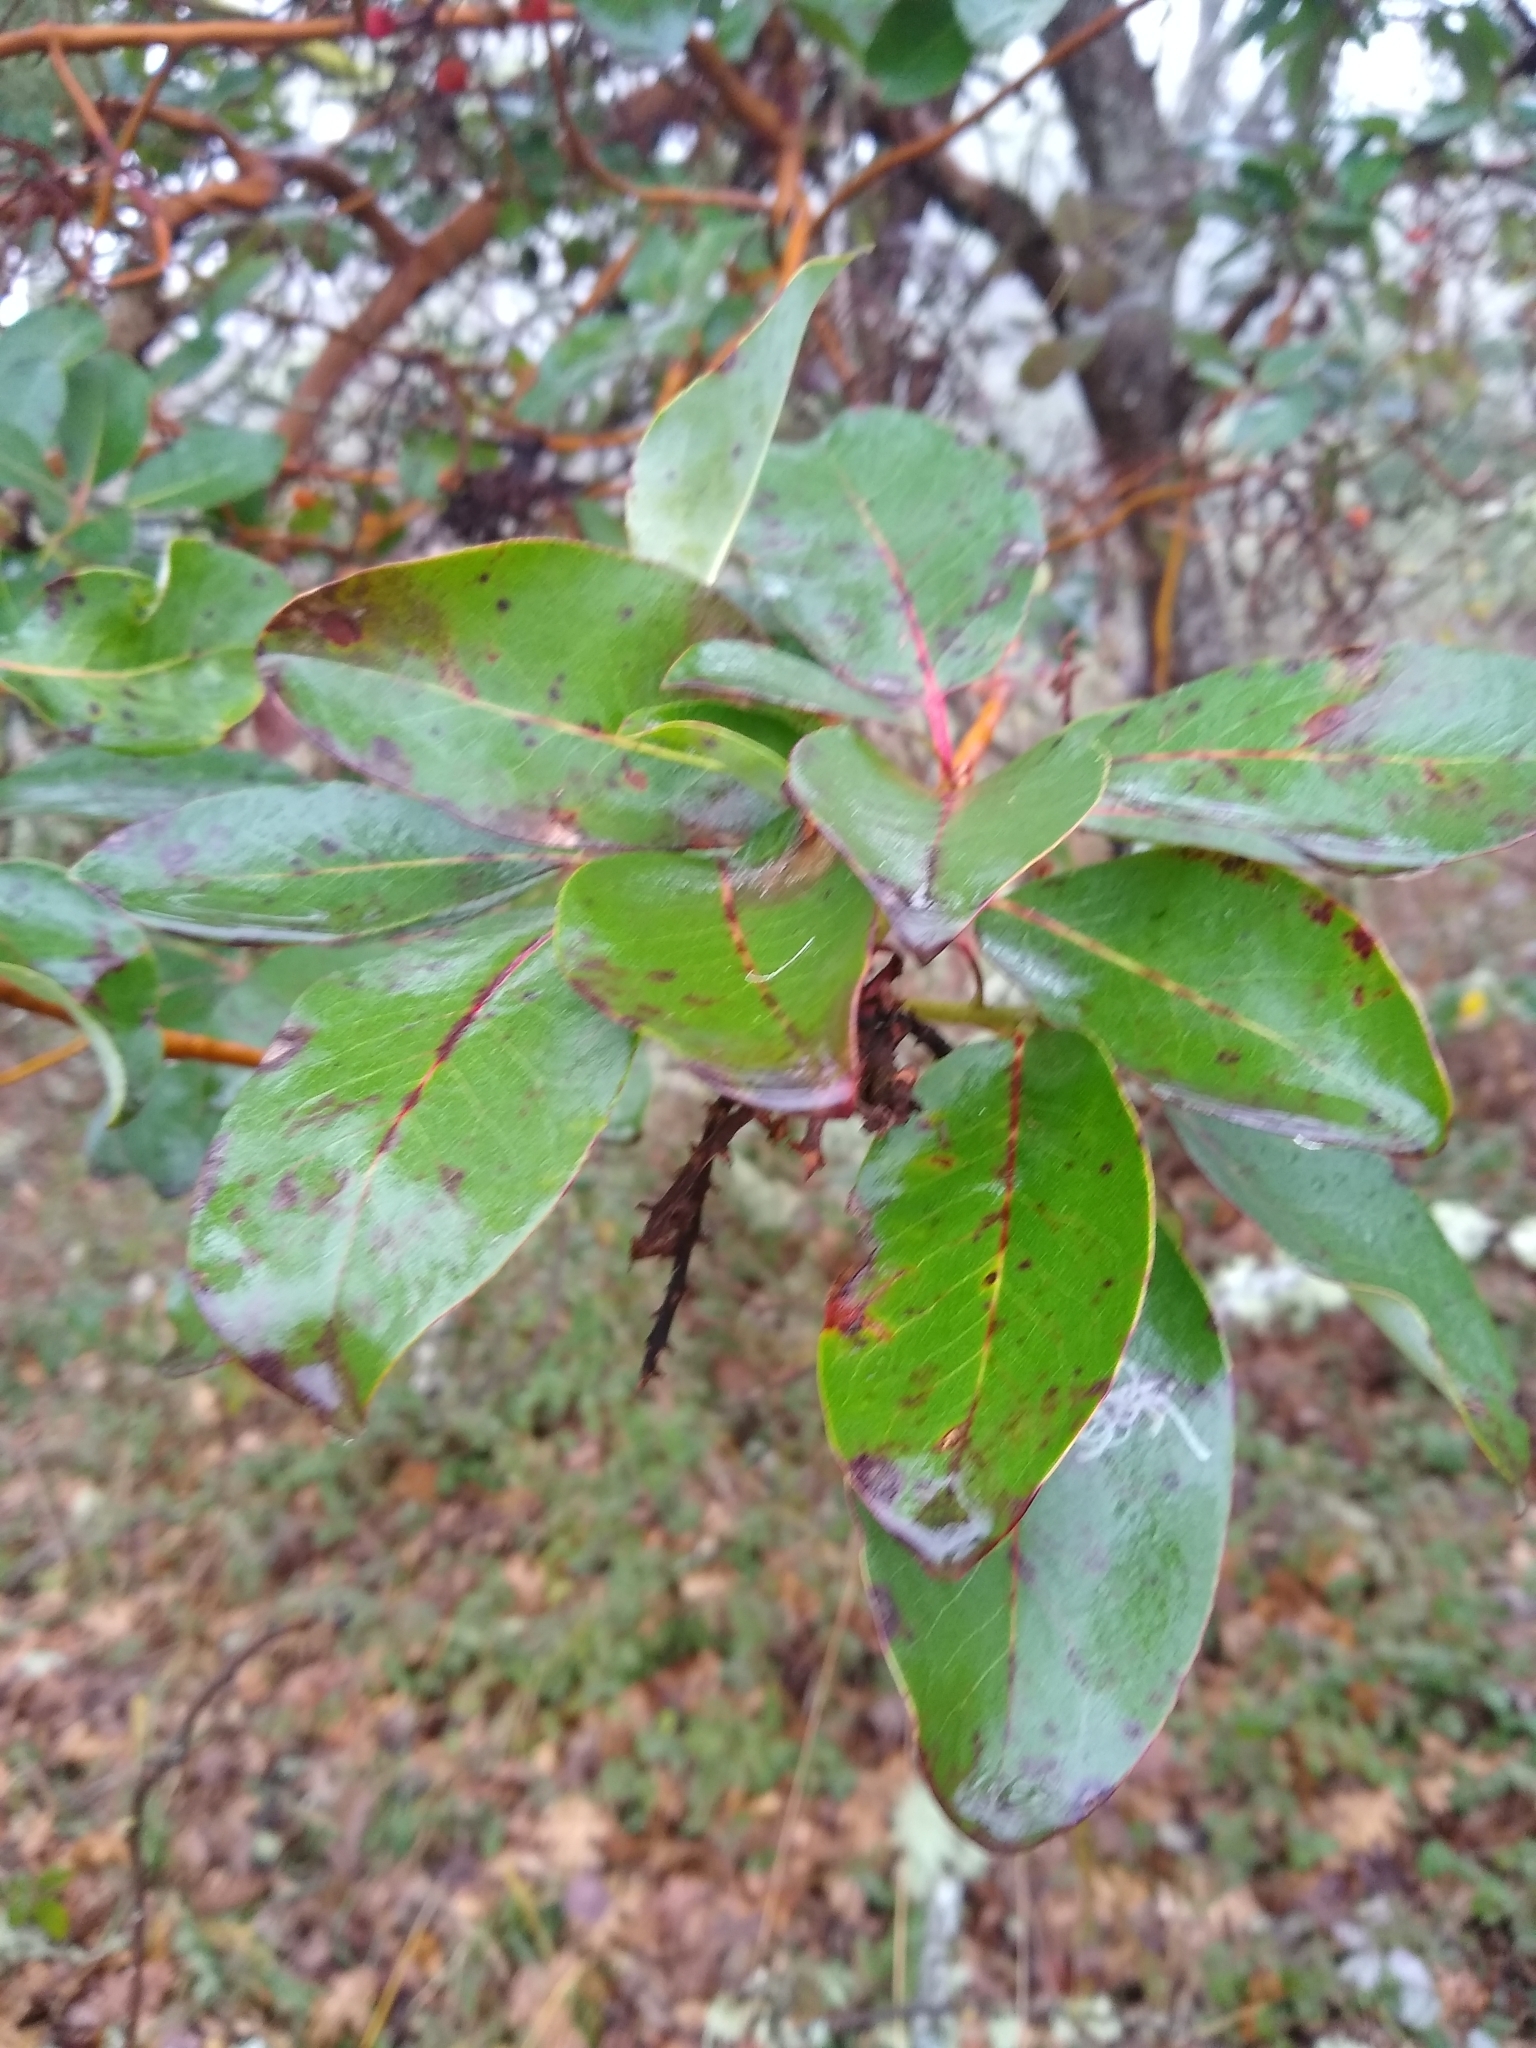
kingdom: Plantae
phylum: Tracheophyta
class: Magnoliopsida
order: Ericales
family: Ericaceae
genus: Arbutus
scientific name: Arbutus menziesii
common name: Pacific madrone
